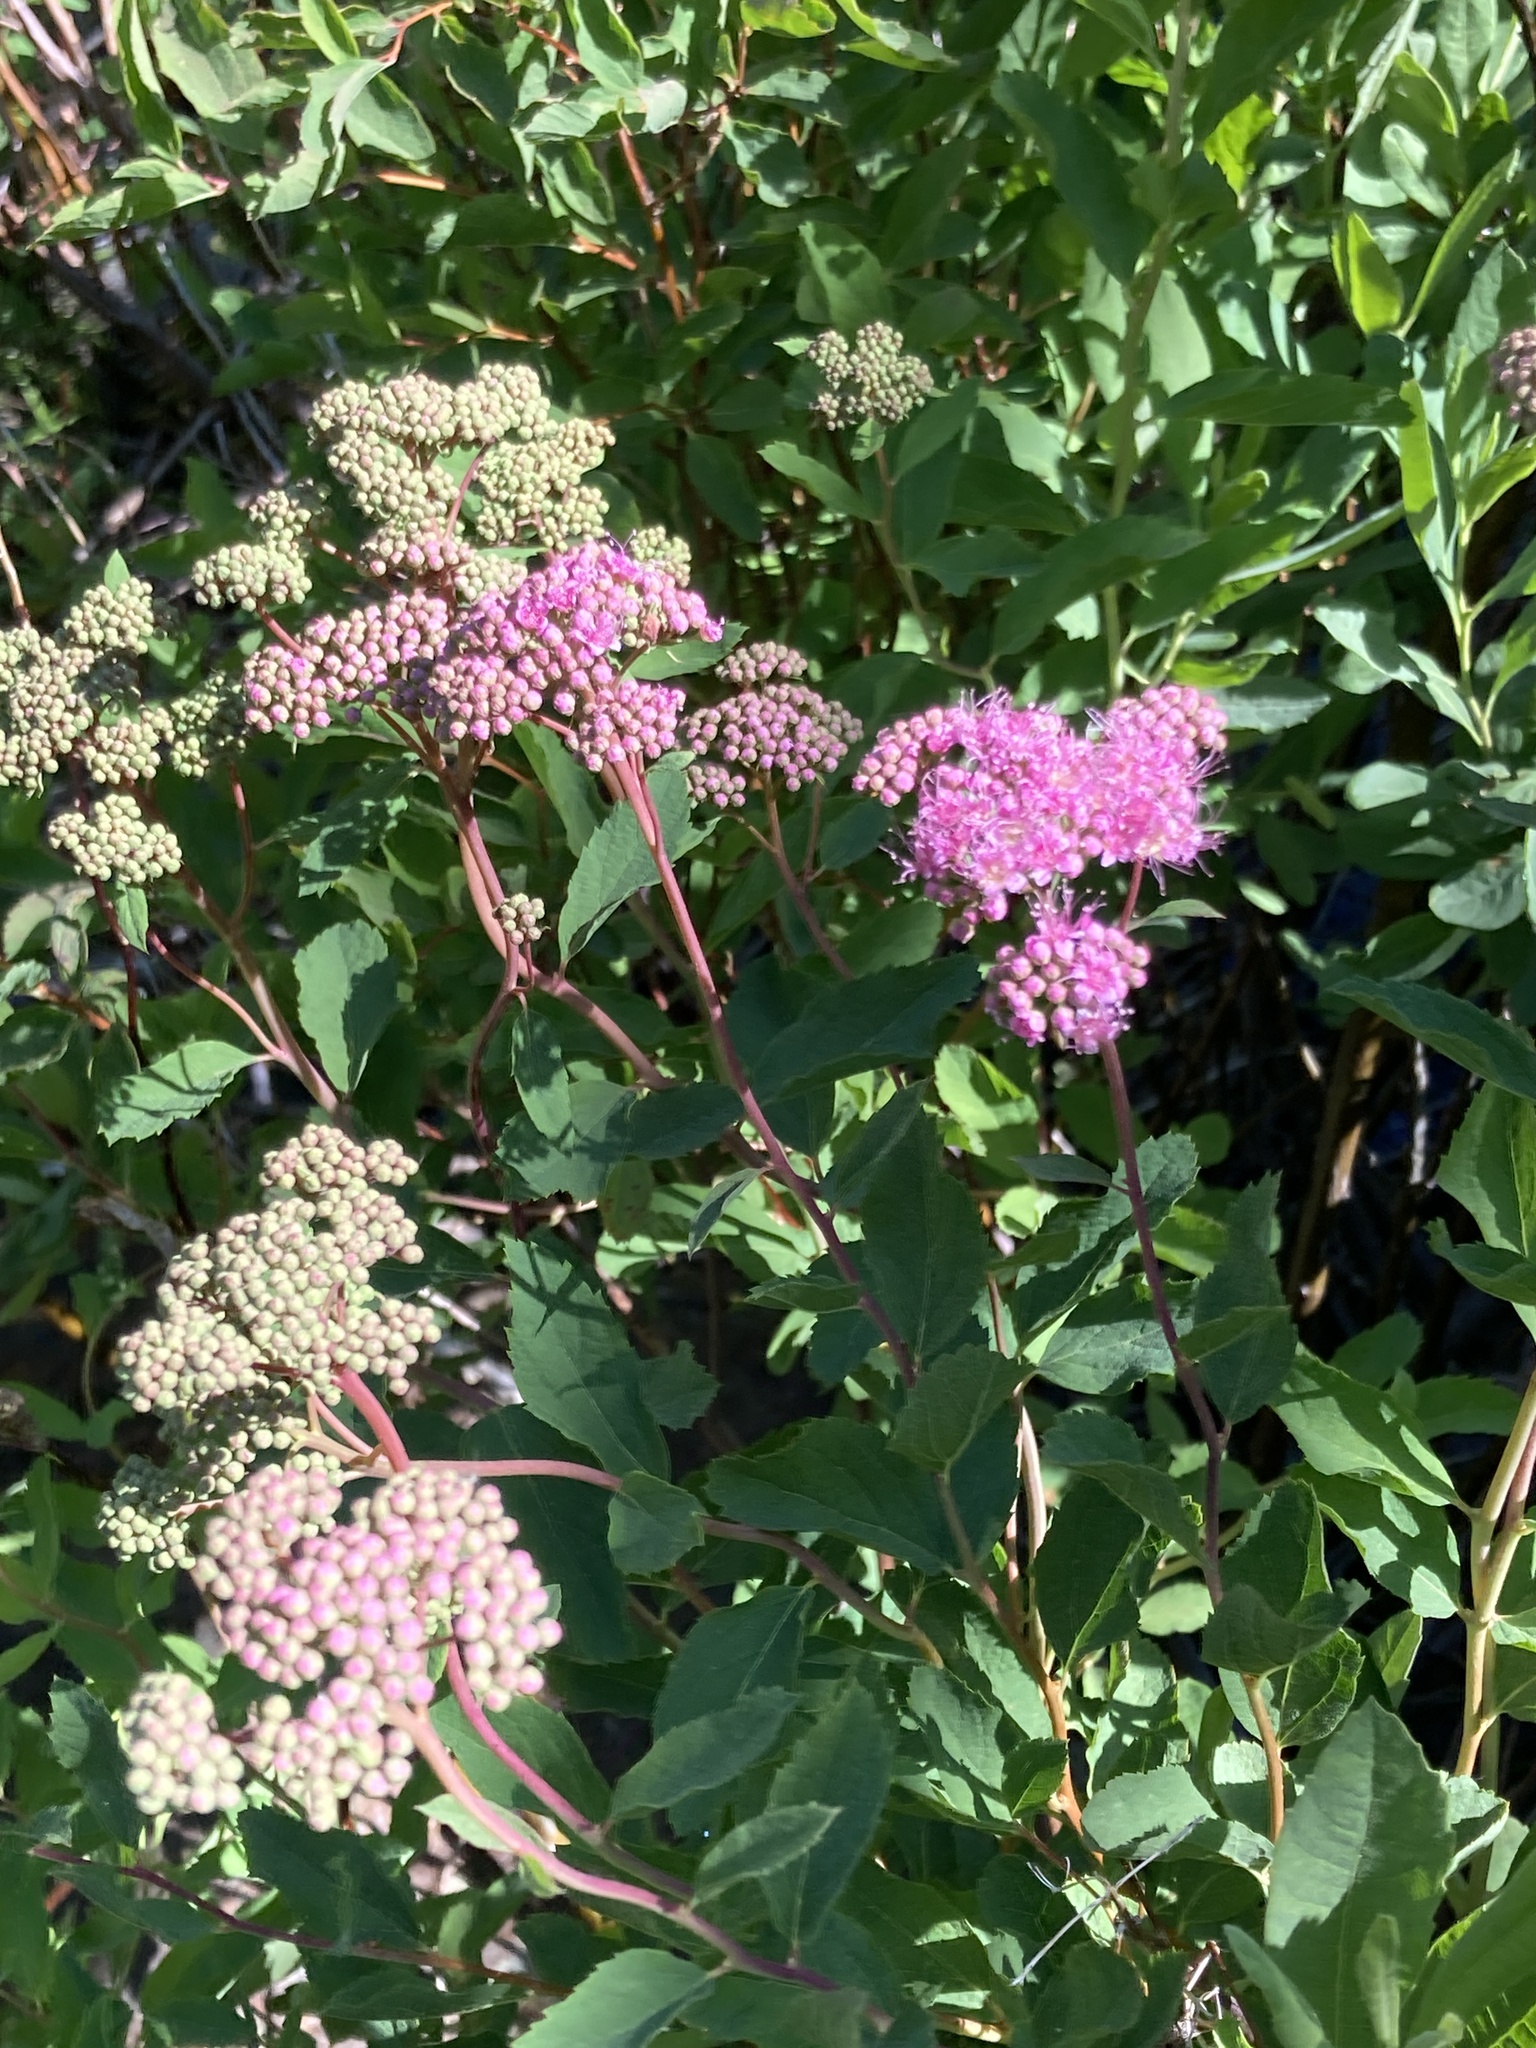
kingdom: Plantae
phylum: Tracheophyta
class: Magnoliopsida
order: Rosales
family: Rosaceae
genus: Spiraea
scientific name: Spiraea splendens
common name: Subalpine meadowsweet
